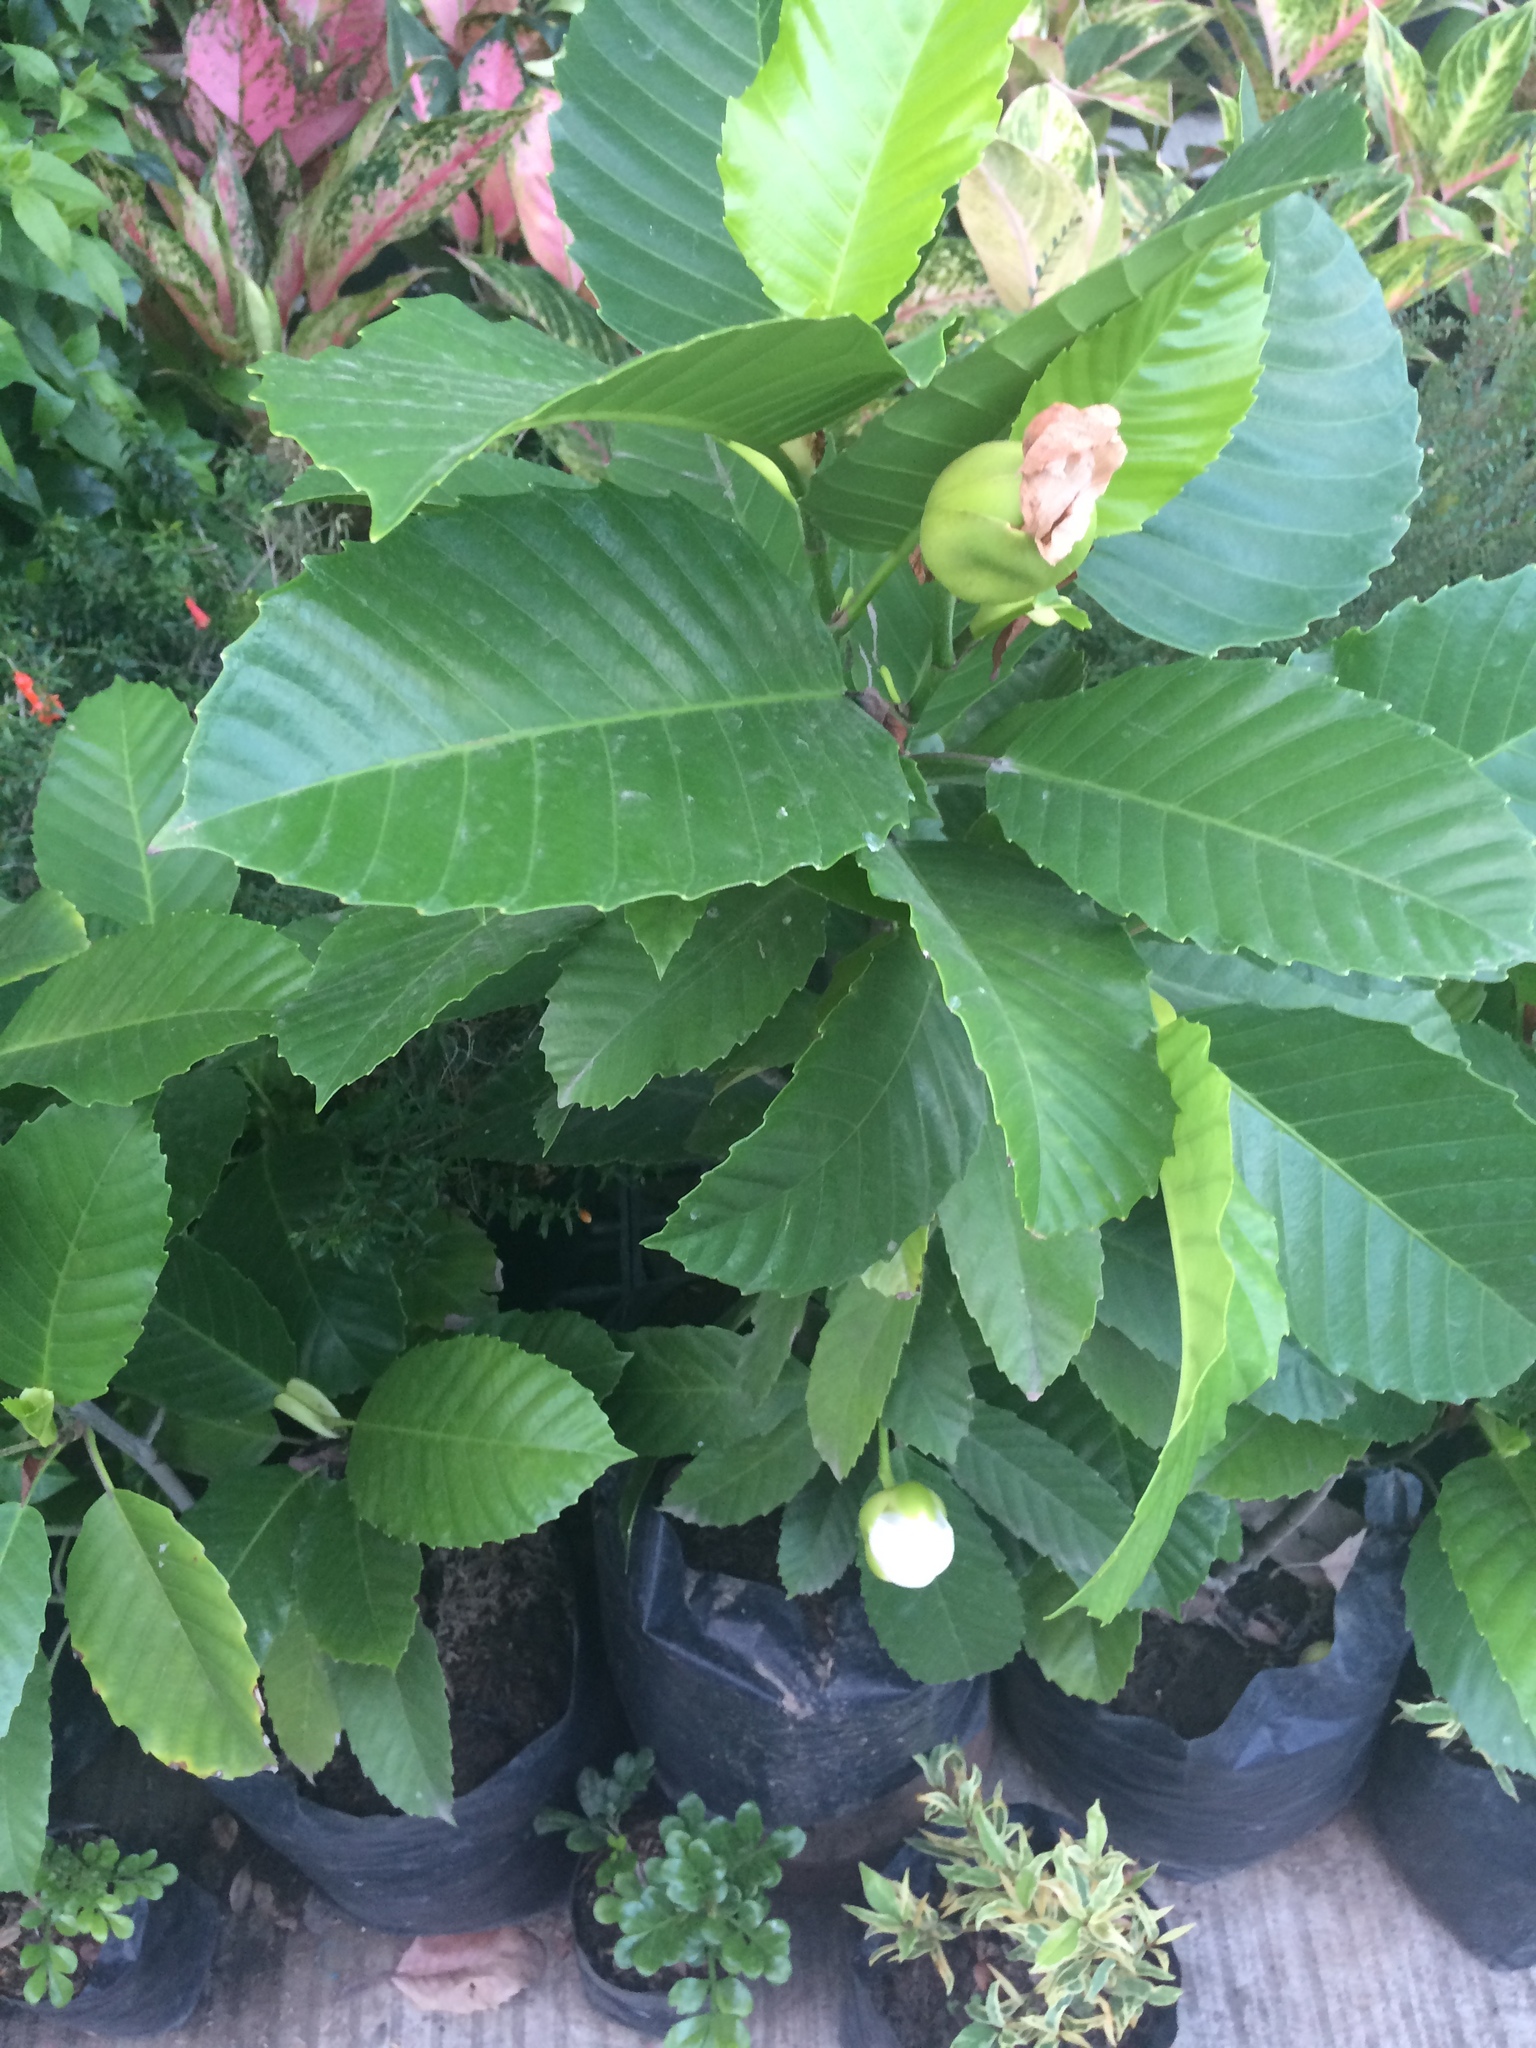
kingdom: Plantae
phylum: Tracheophyta
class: Magnoliopsida
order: Dilleniales
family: Dilleniaceae
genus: Dillenia
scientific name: Dillenia philippinensis
